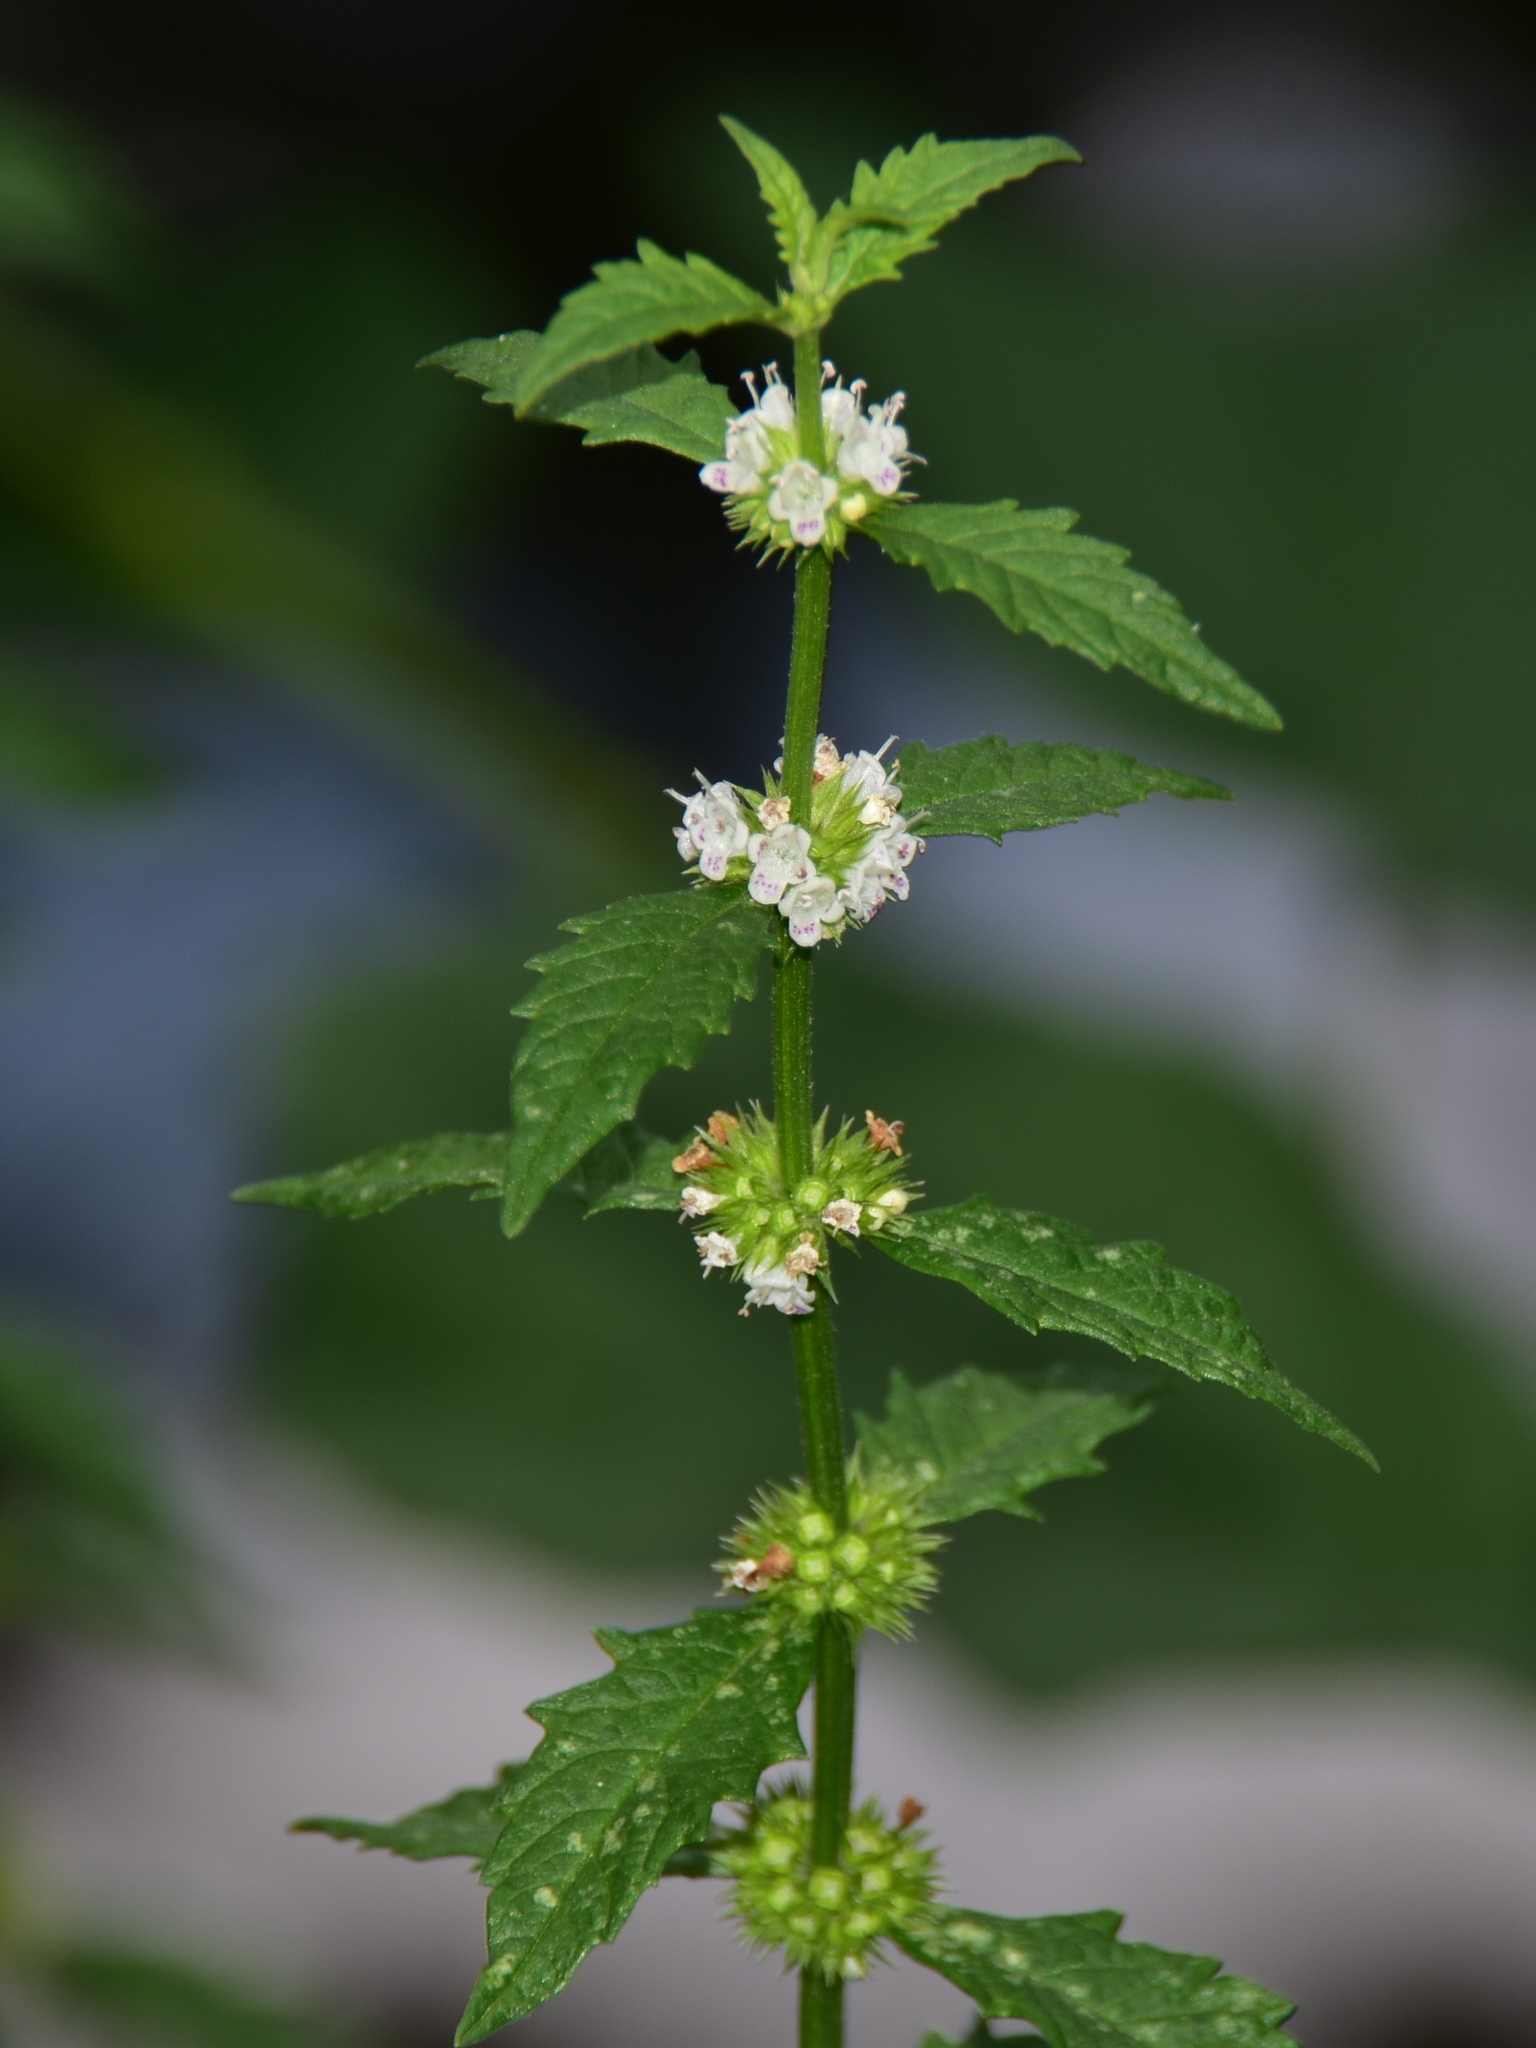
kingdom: Plantae
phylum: Tracheophyta
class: Magnoliopsida
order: Lamiales
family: Lamiaceae
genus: Lycopus
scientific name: Lycopus europaeus
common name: European bugleweed
